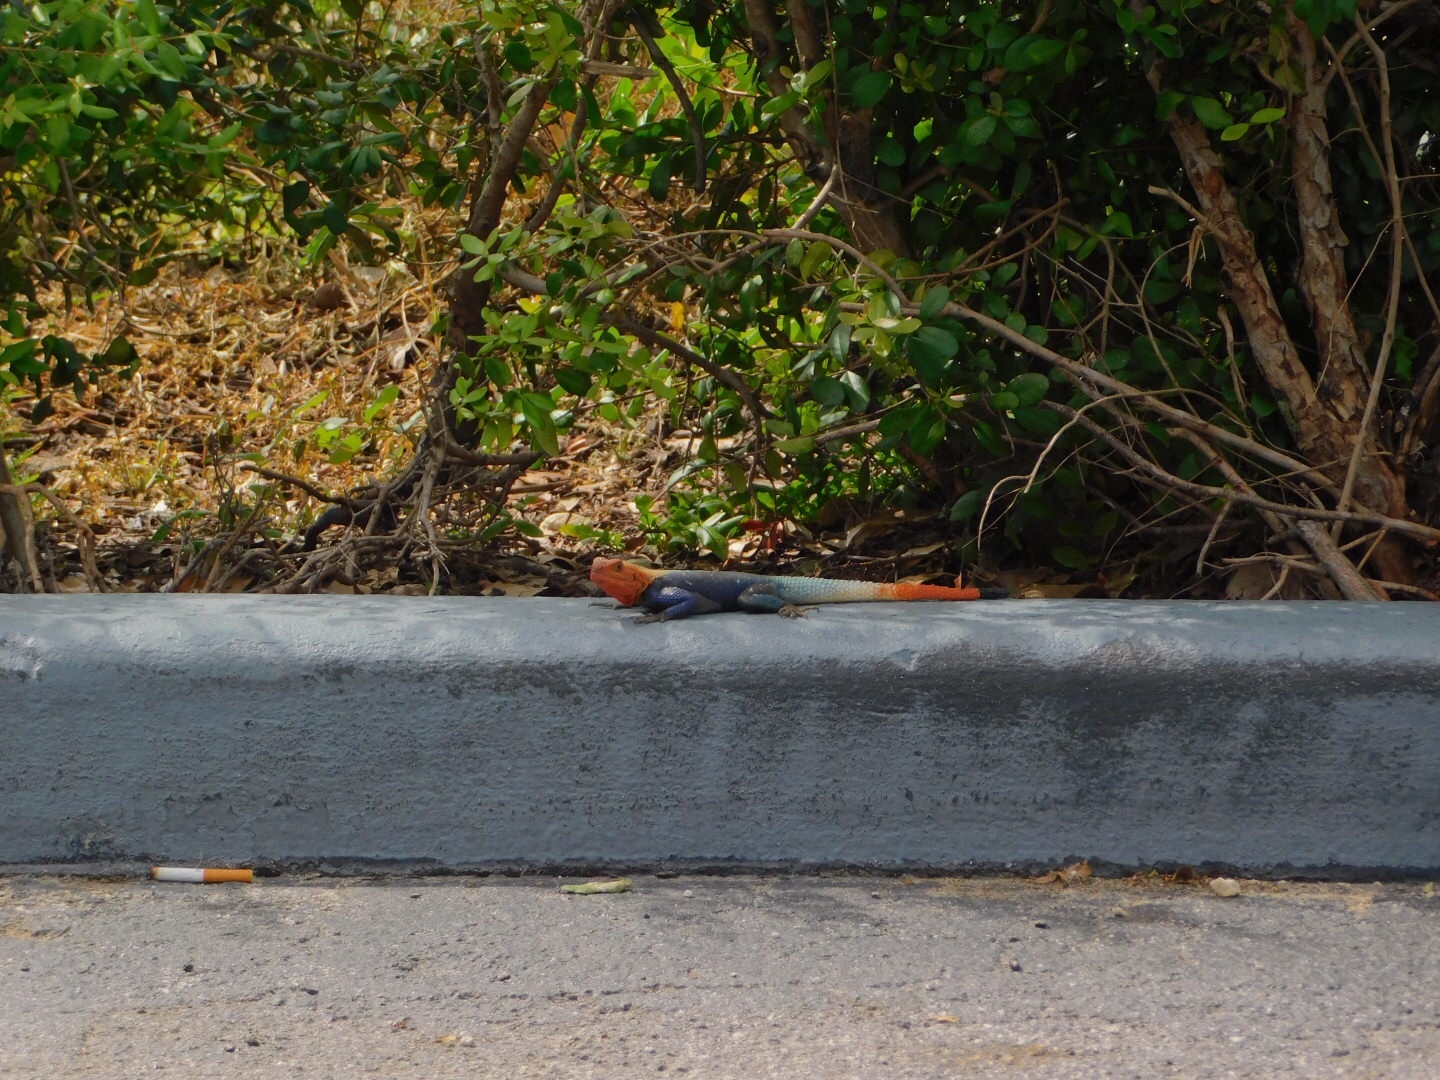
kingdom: Animalia
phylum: Chordata
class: Squamata
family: Agamidae
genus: Agama
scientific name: Agama picticauda
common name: Red-headed agama
